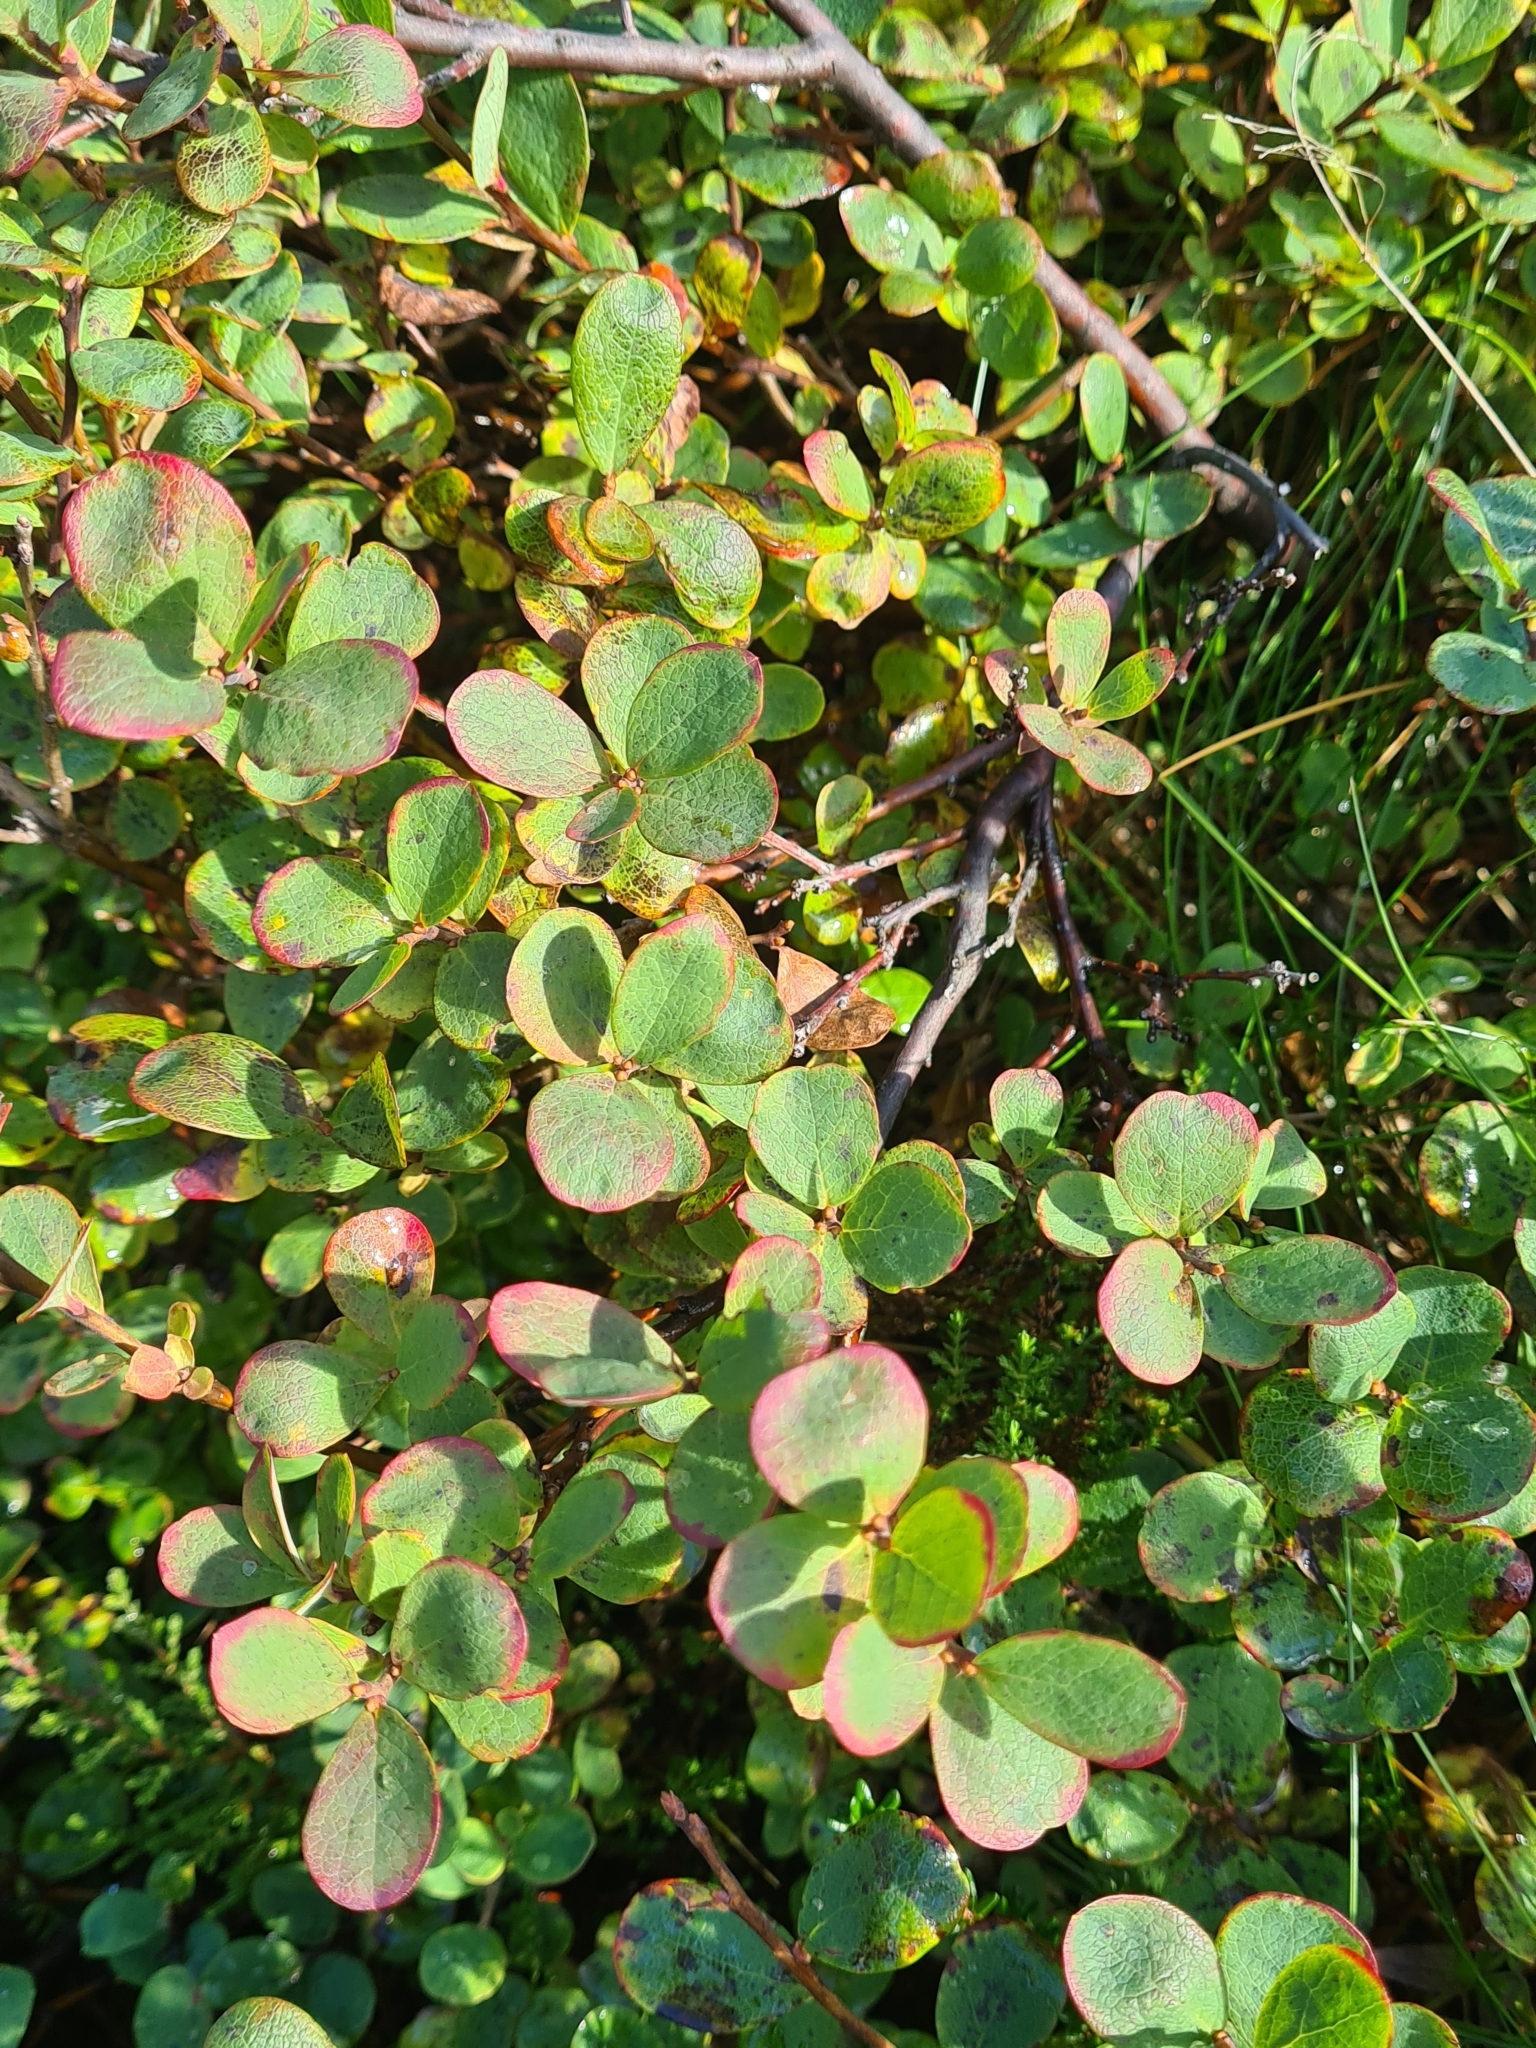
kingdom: Plantae
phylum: Tracheophyta
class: Magnoliopsida
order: Ericales
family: Ericaceae
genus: Vaccinium
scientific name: Vaccinium uliginosum
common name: Bog bilberry
